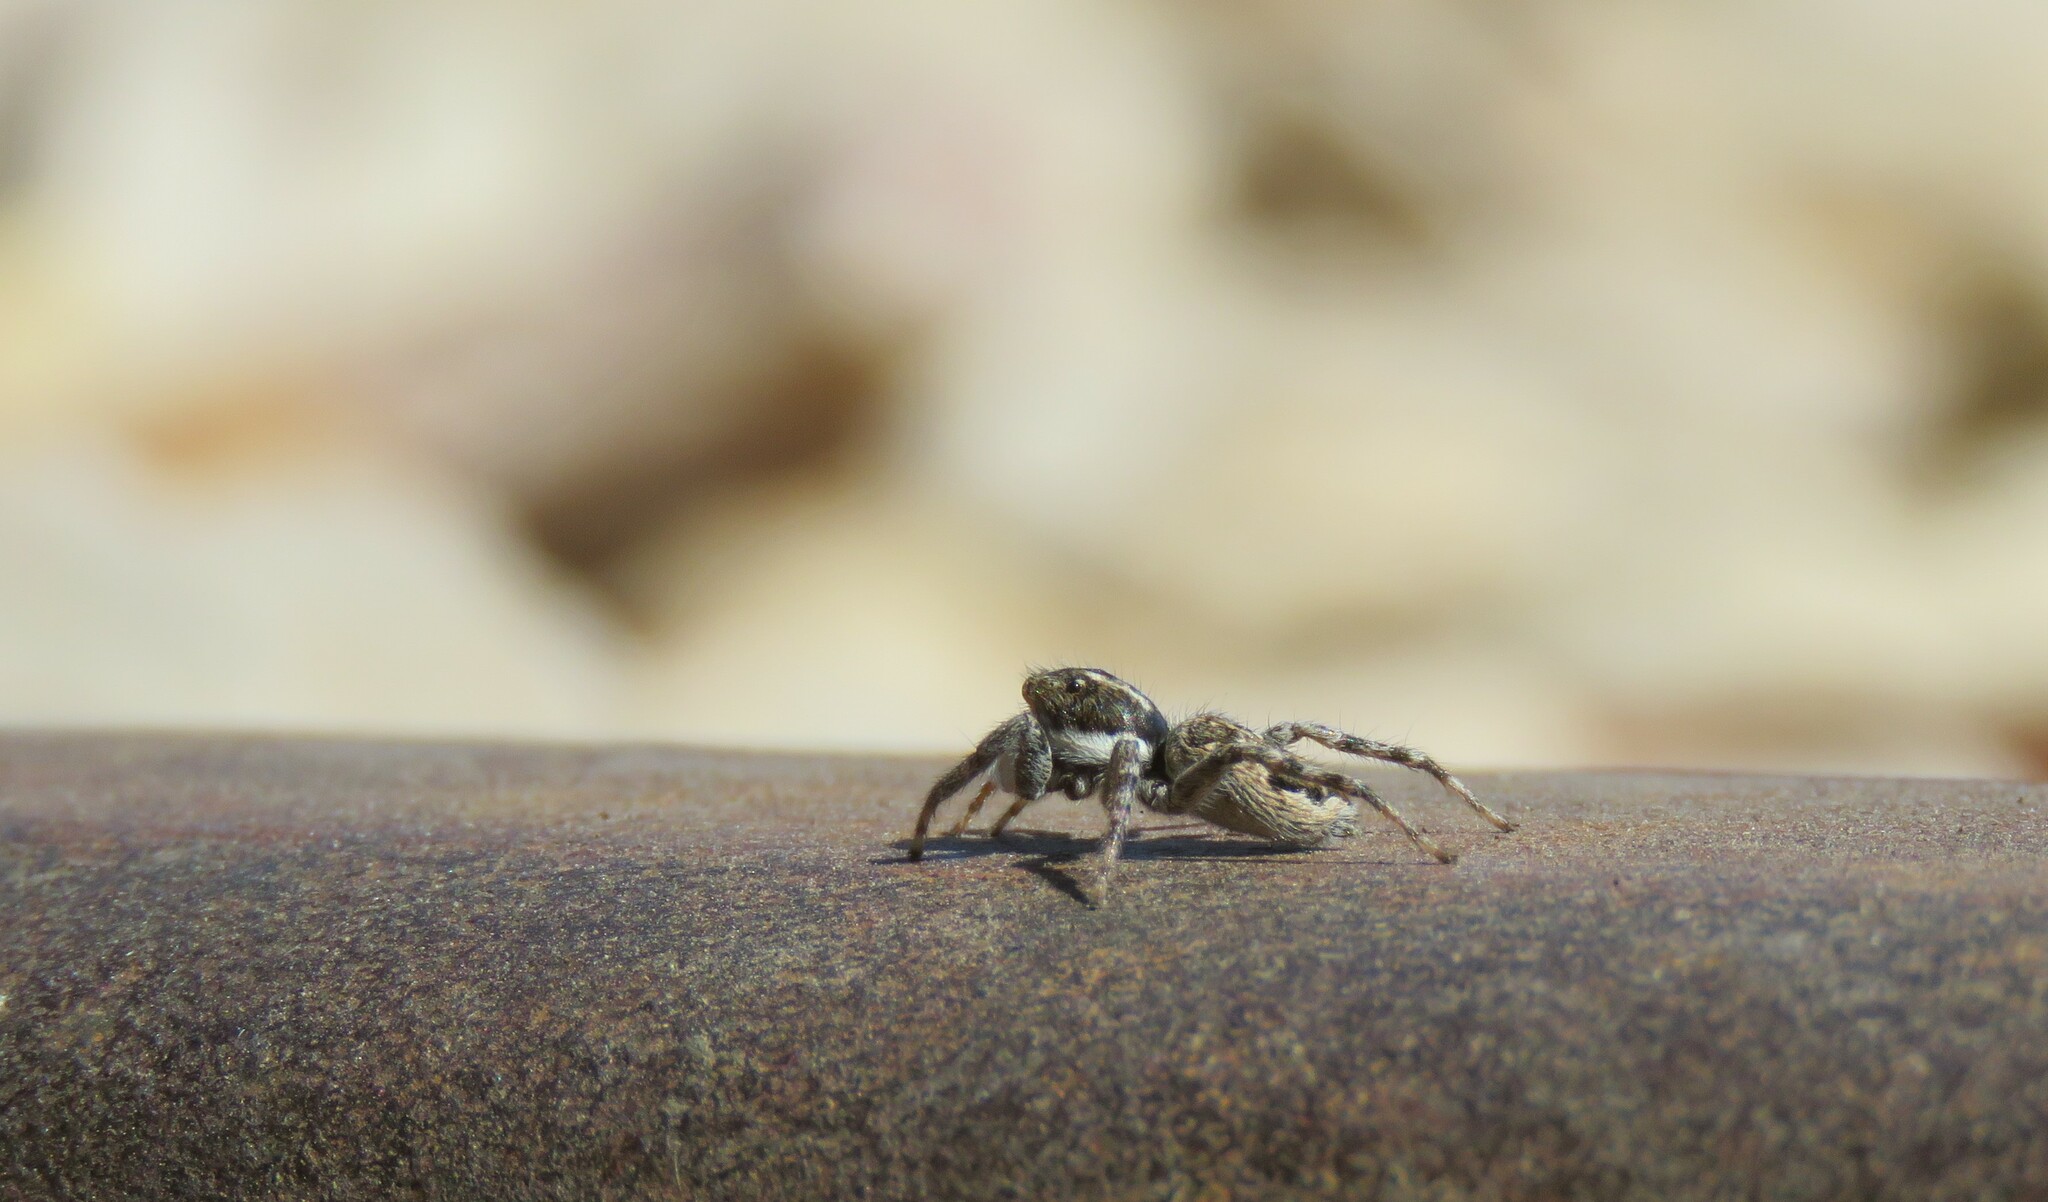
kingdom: Animalia
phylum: Arthropoda
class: Arachnida
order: Araneae
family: Salticidae
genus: Menemerus
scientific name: Menemerus semilimbatus
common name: Jumping spider
